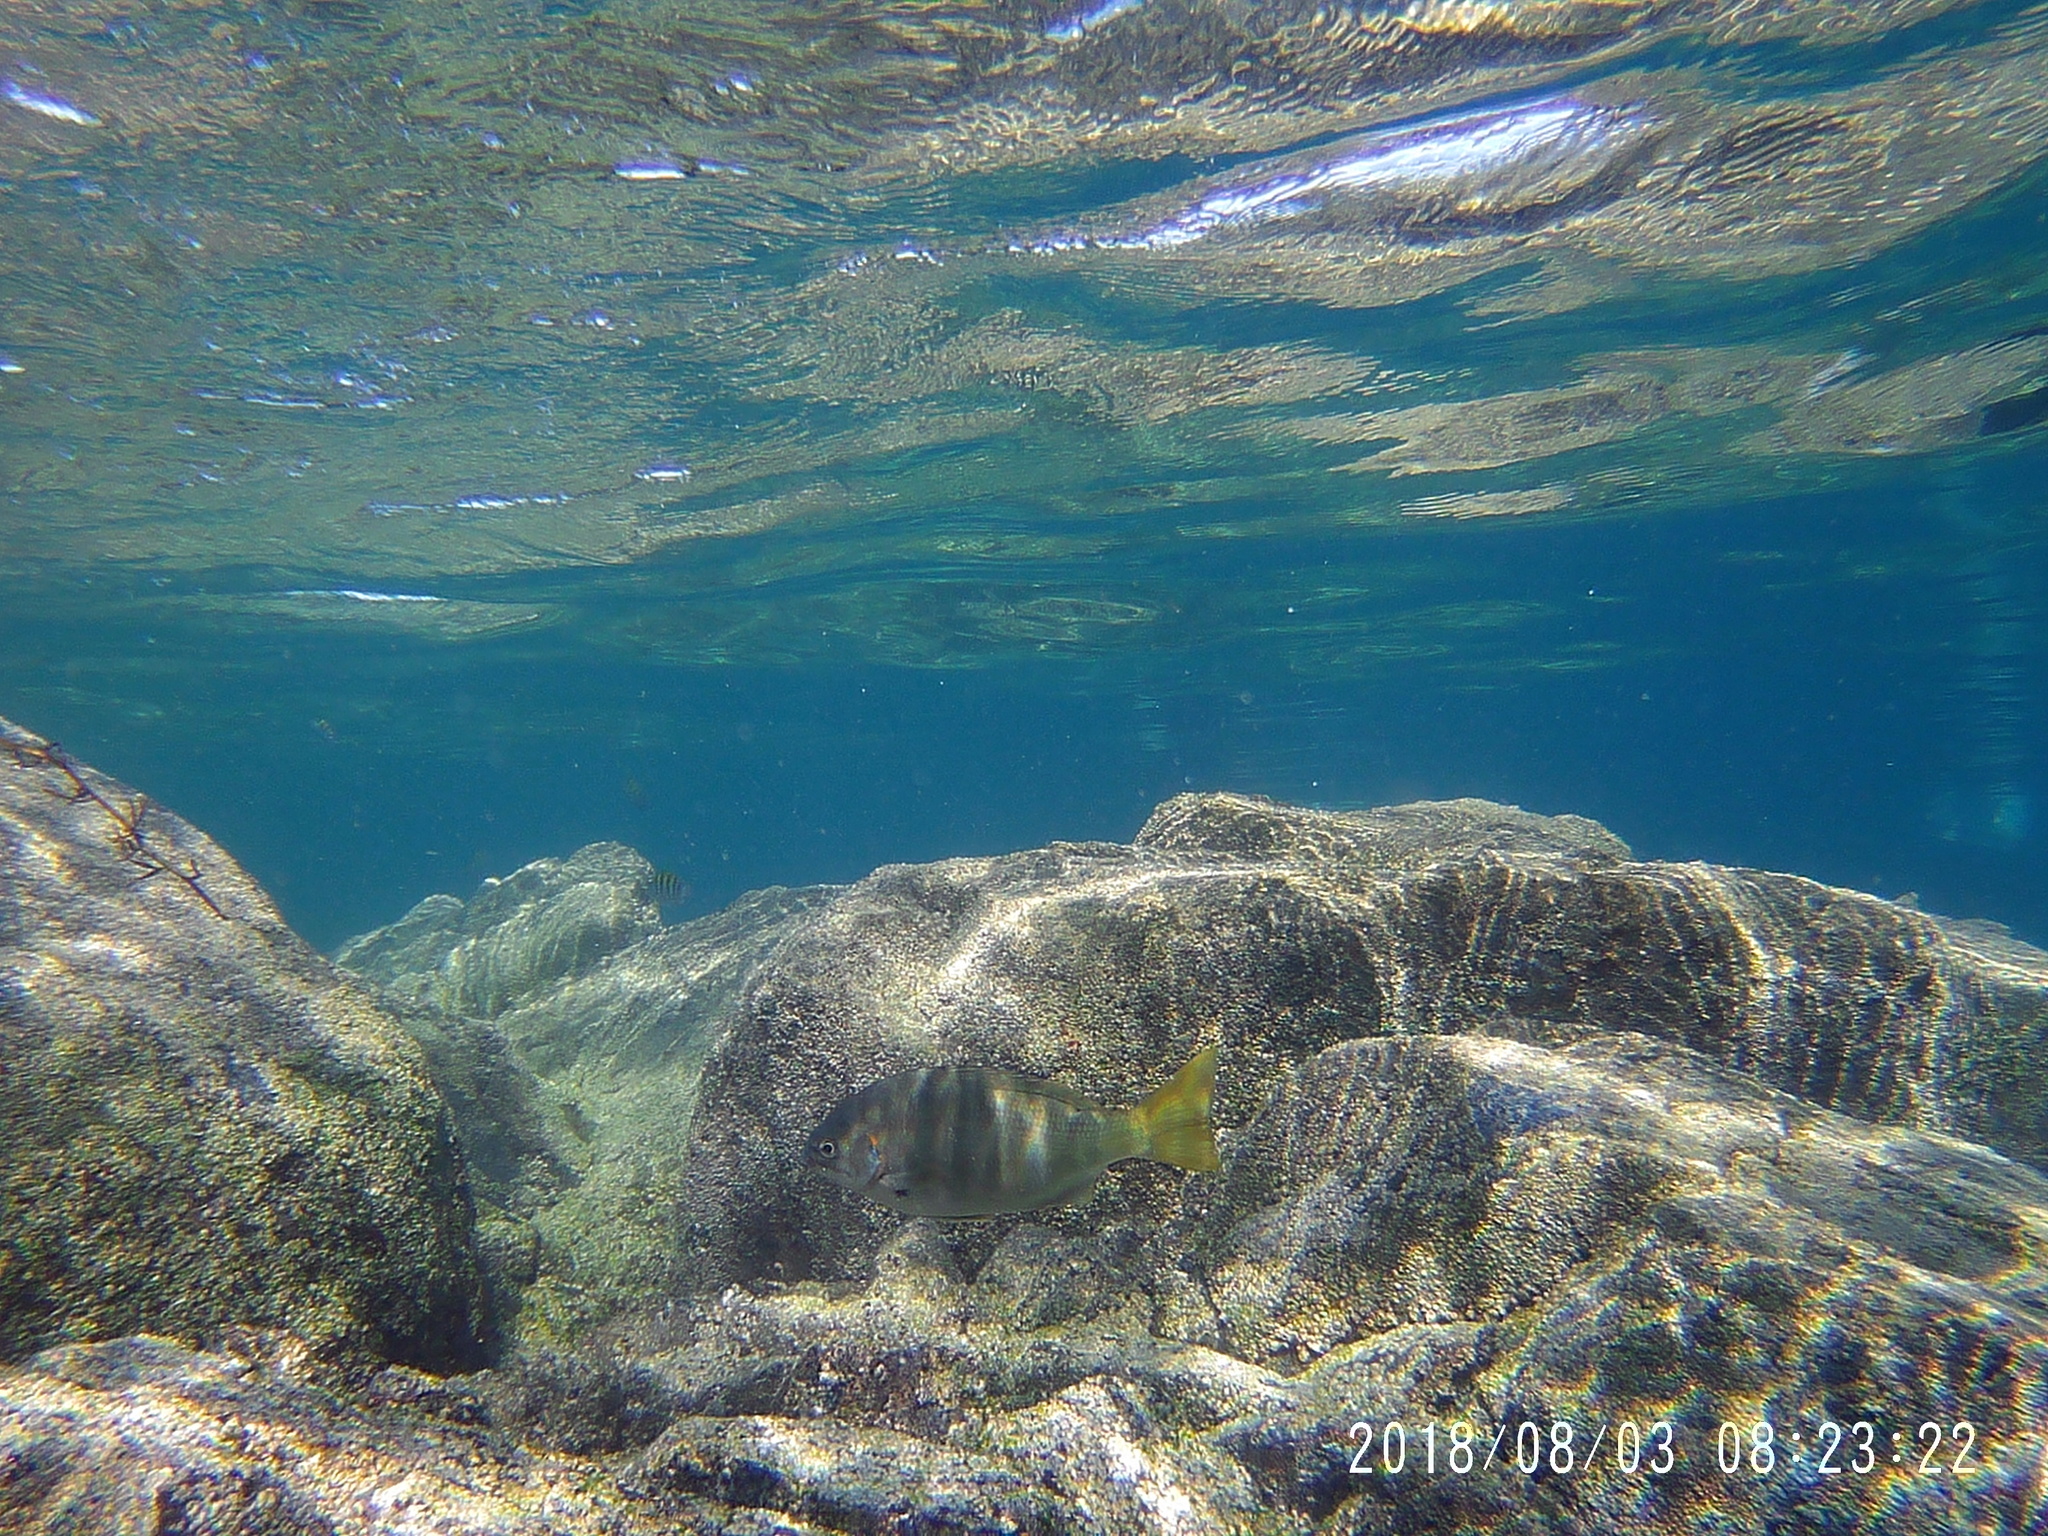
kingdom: Animalia
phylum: Chordata
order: Perciformes
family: Kyphosidae
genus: Kyphosus
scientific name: Kyphosus azureus
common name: Perch
